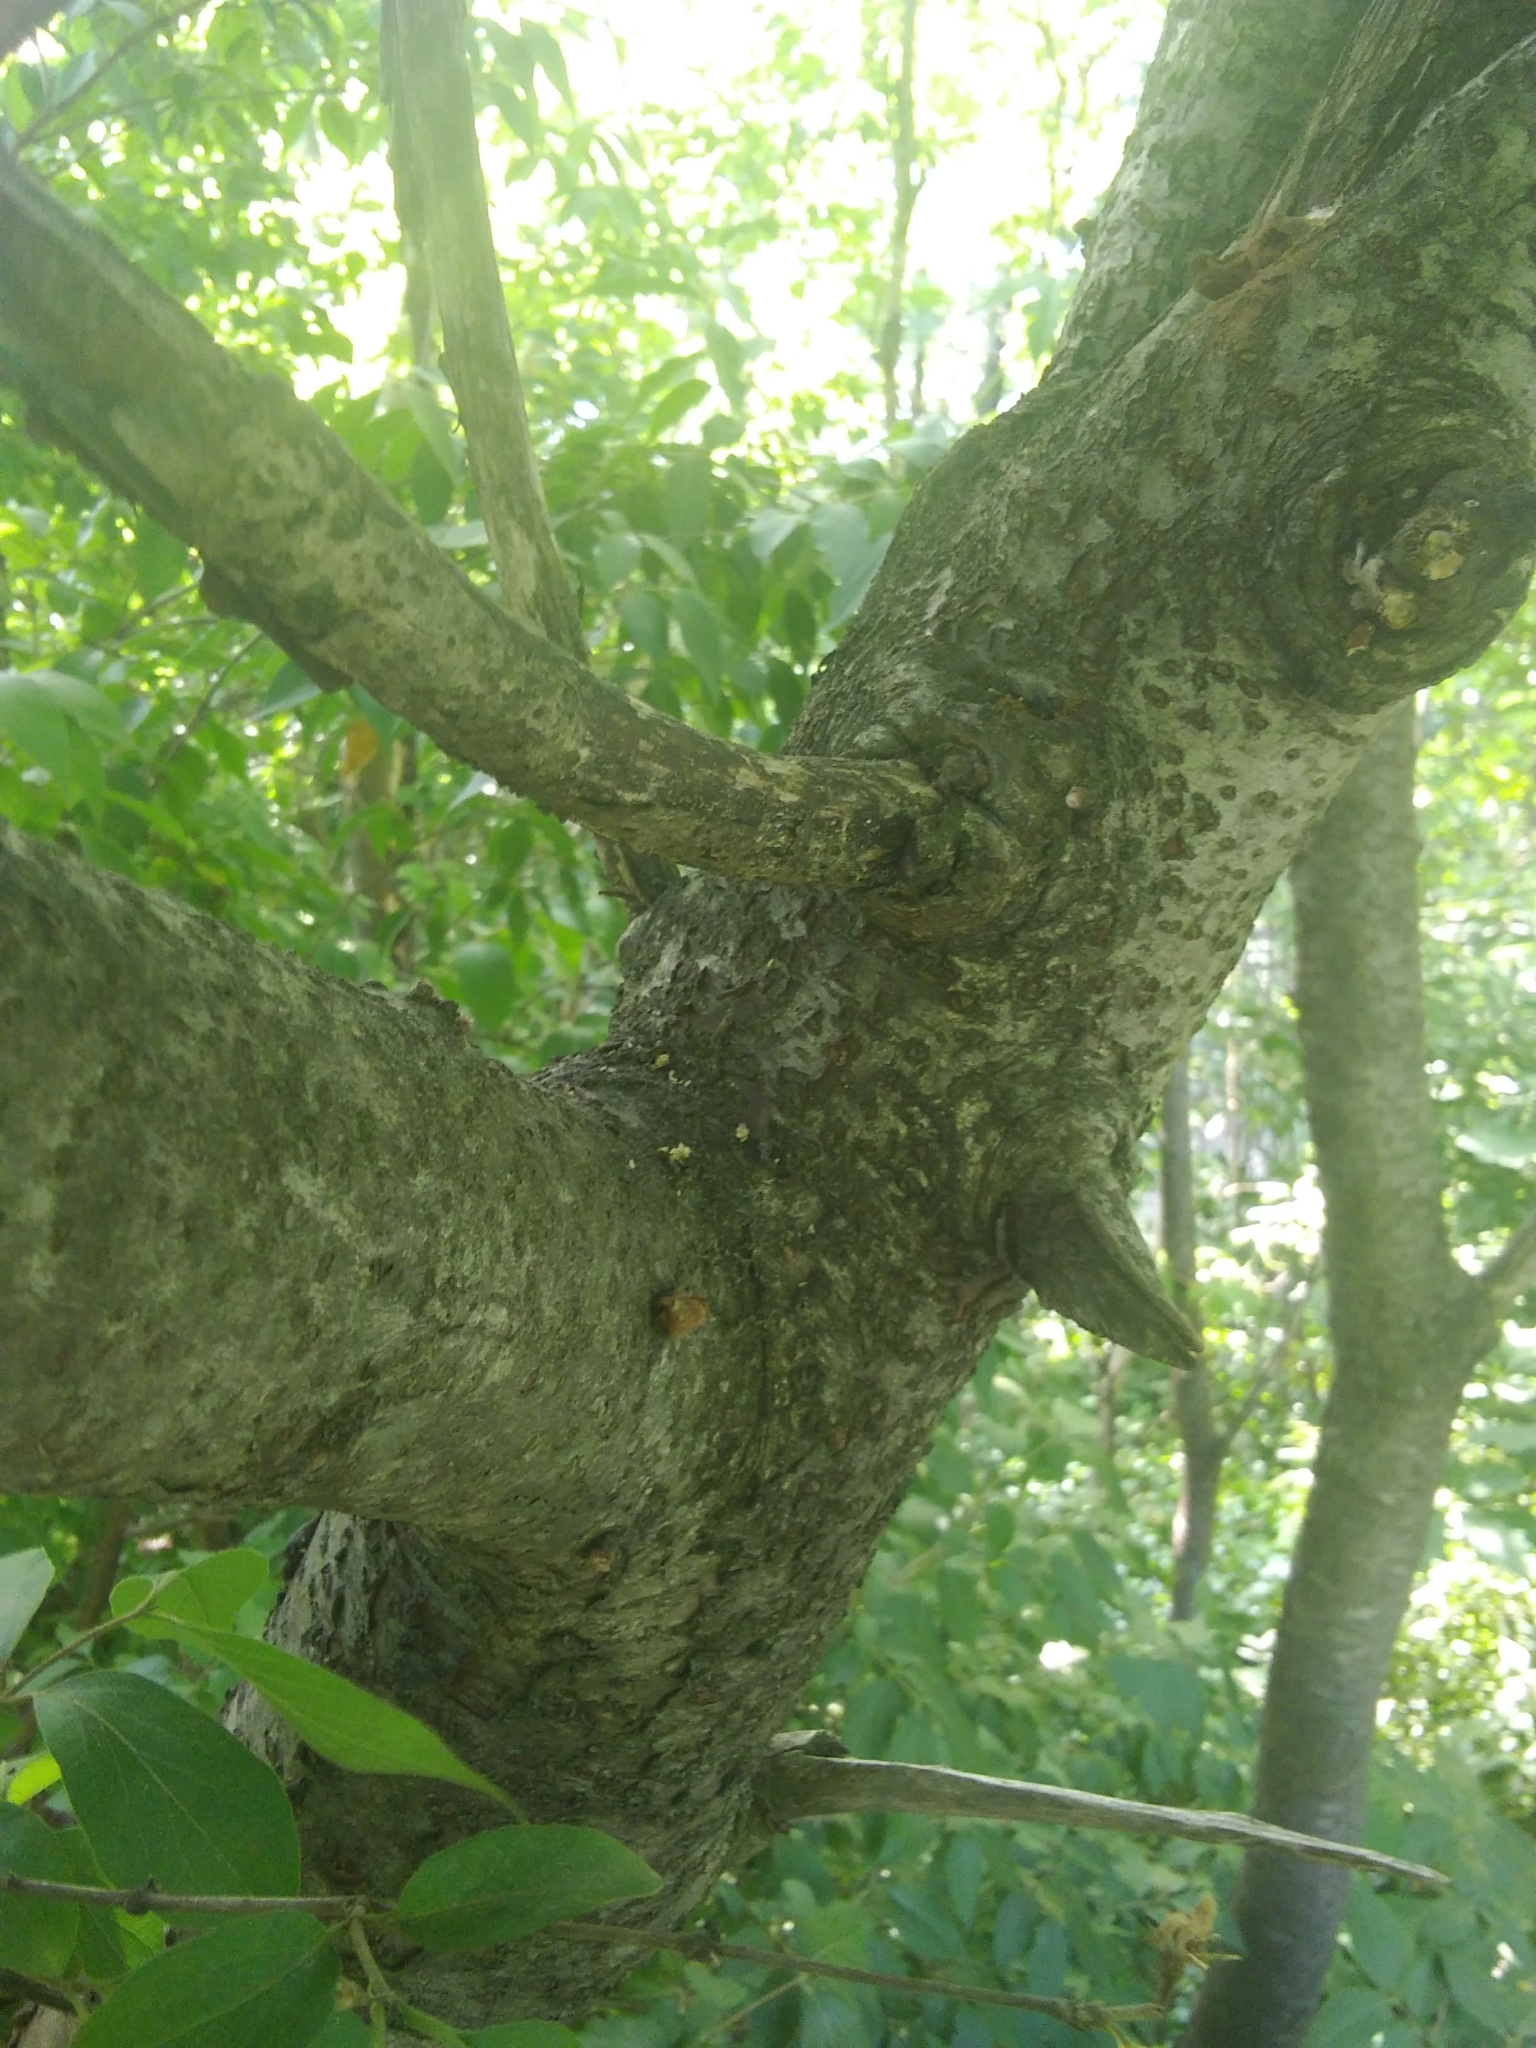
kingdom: Plantae
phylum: Tracheophyta
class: Magnoliopsida
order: Sapindales
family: Anacardiaceae
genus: Rhus
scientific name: Rhus typhina
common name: Staghorn sumac
